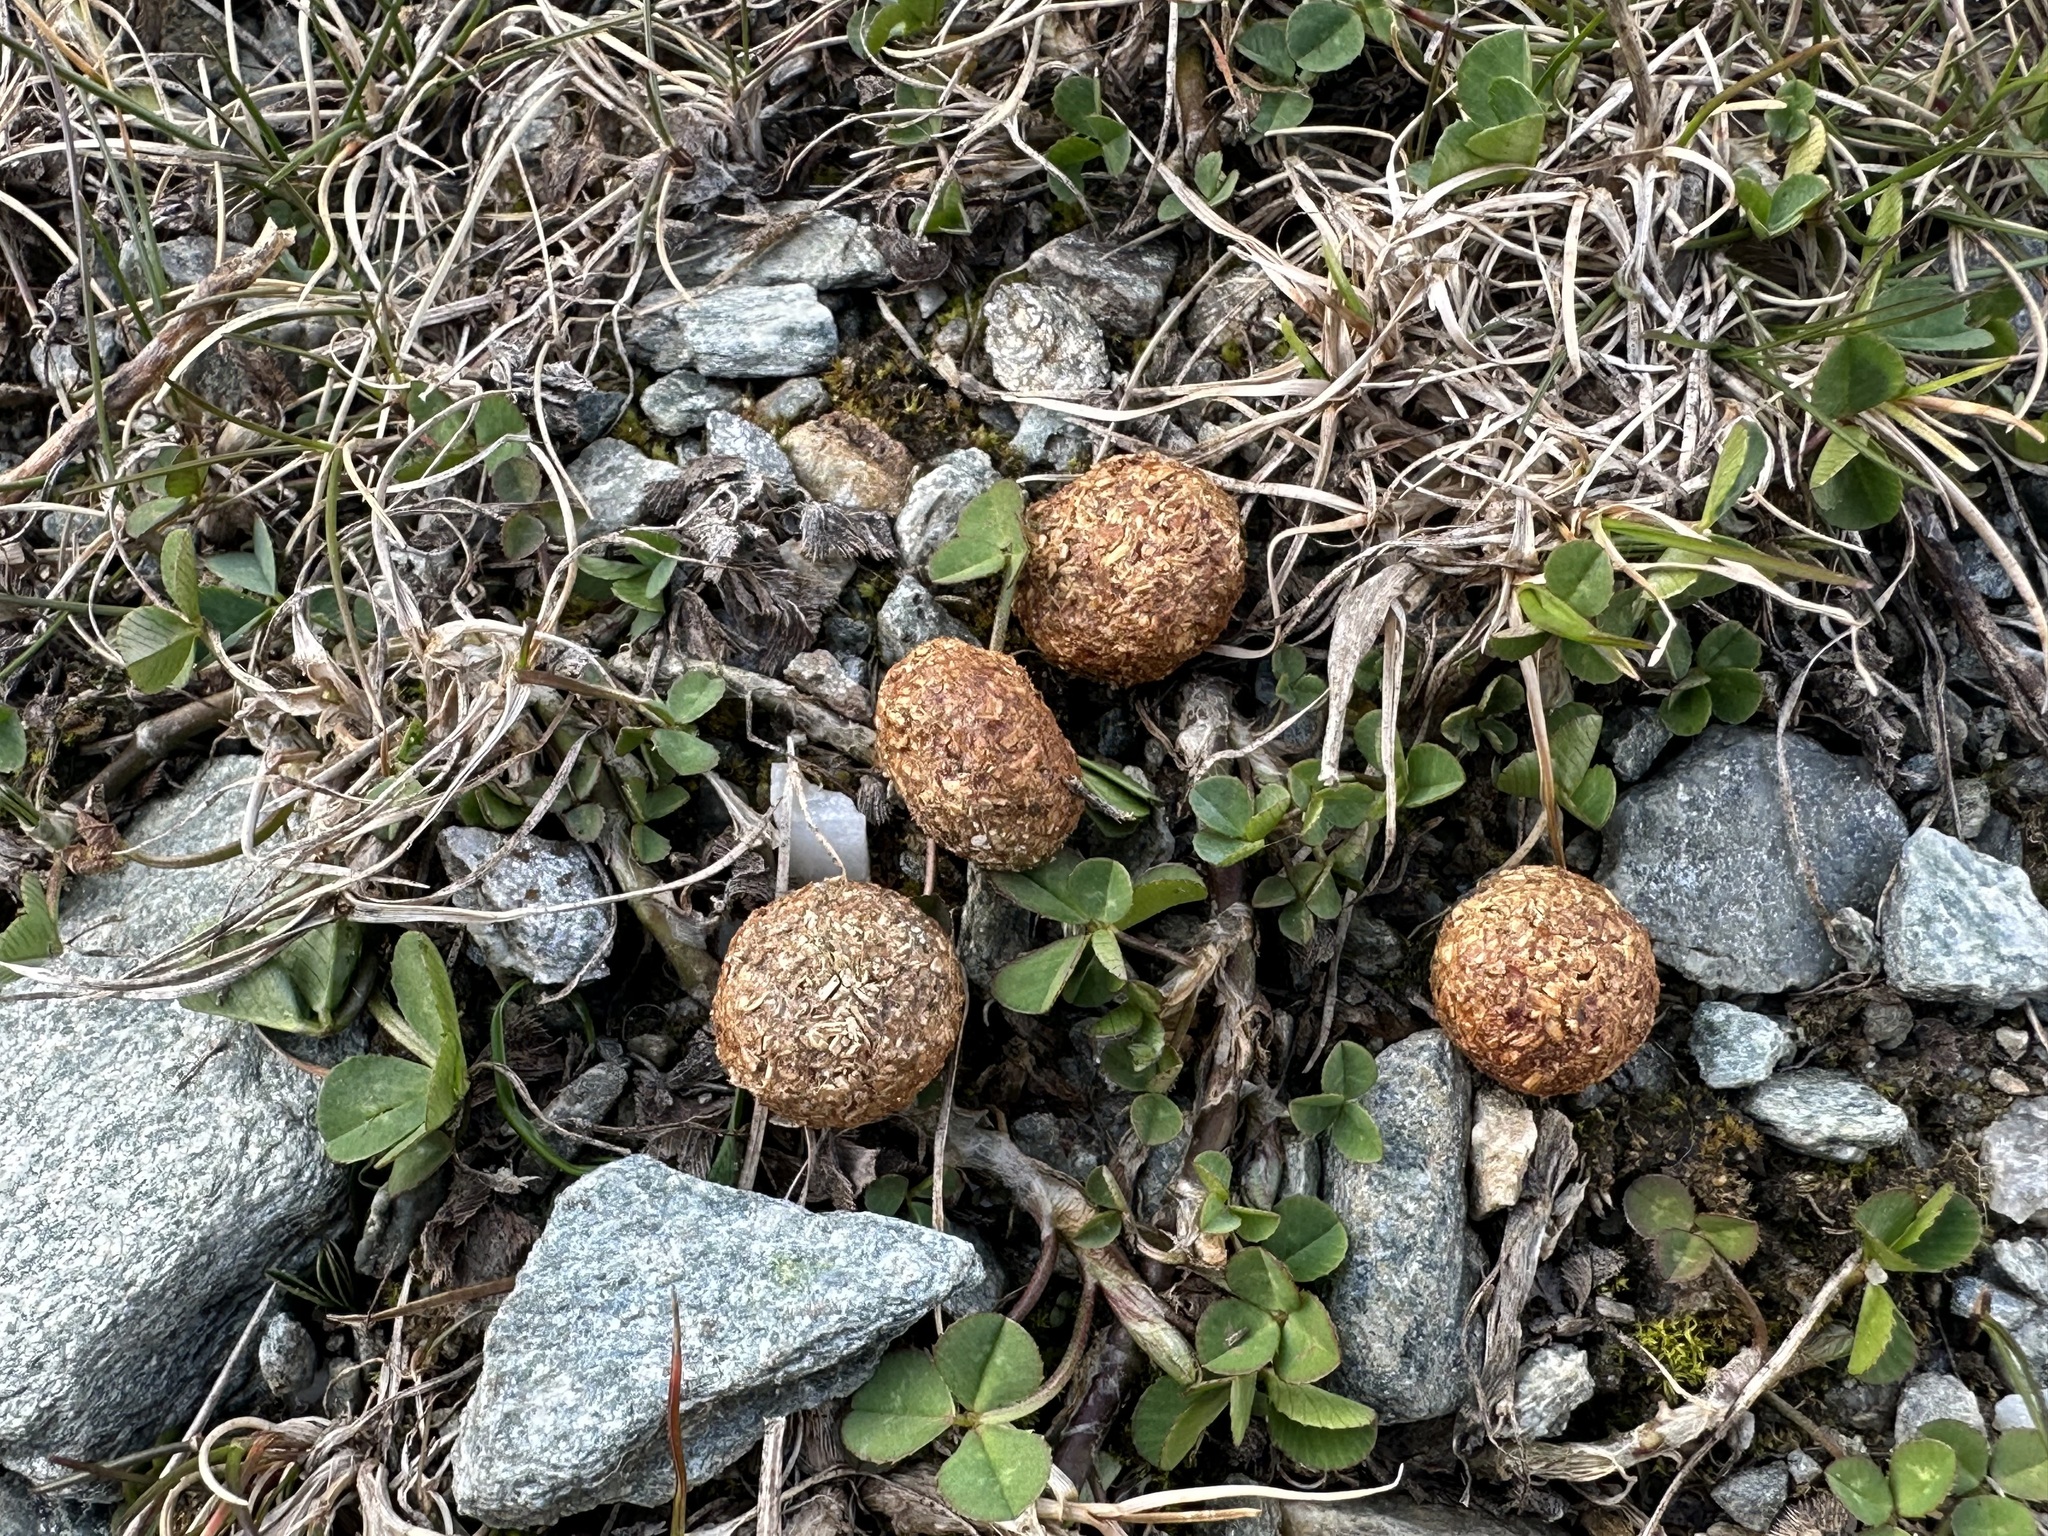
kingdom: Animalia
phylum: Chordata
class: Mammalia
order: Lagomorpha
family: Leporidae
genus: Lepus
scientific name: Lepus timidus
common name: Mountain hare
